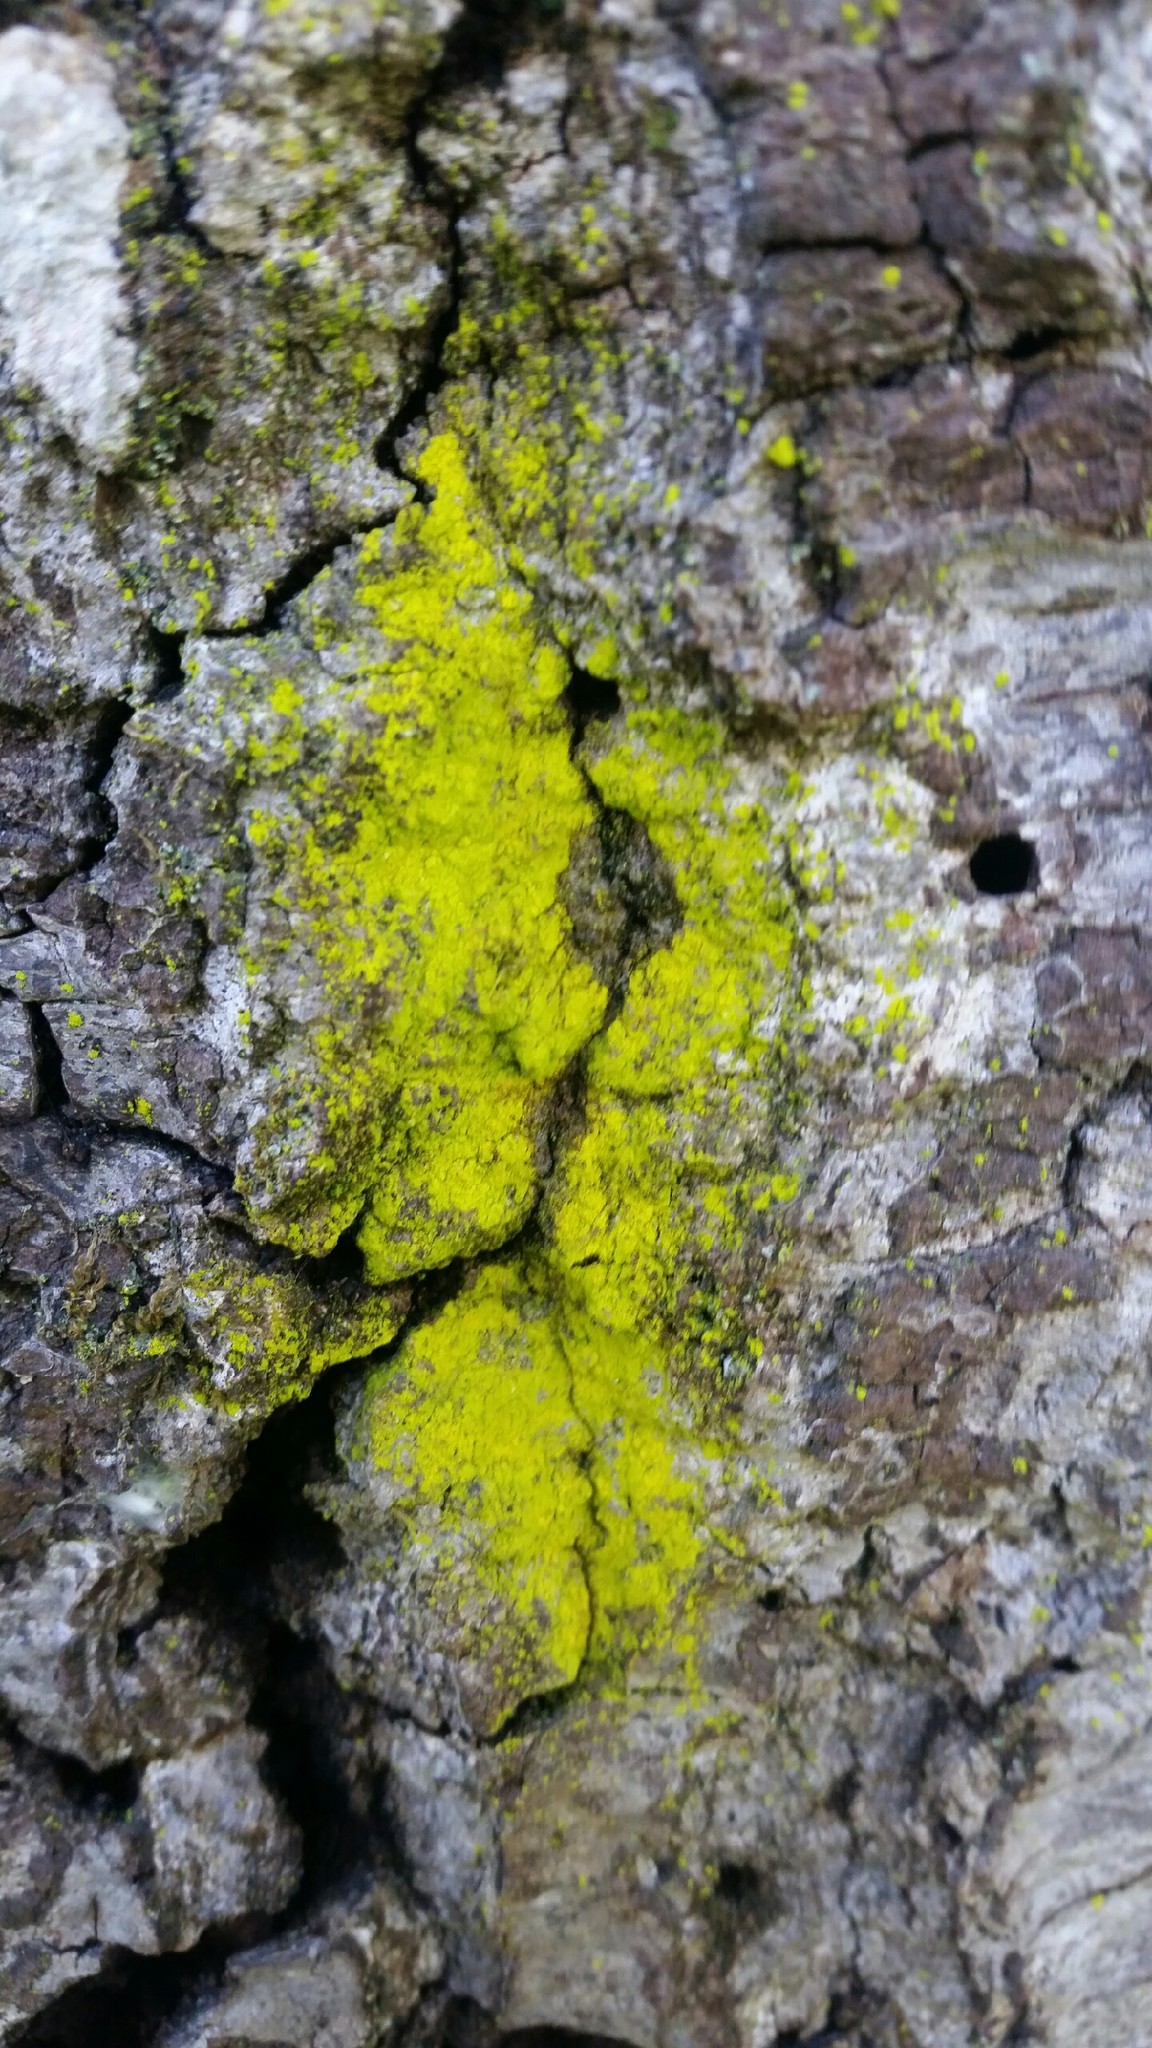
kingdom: Fungi
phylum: Ascomycota
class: Arthoniomycetes
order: Arthoniales
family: Chrysotrichaceae
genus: Chrysothrix
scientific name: Chrysothrix candelaris
